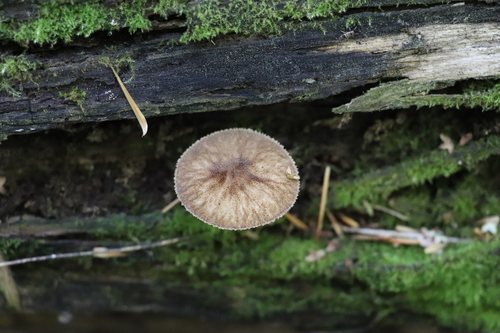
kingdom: Fungi
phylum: Basidiomycota
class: Agaricomycetes
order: Agaricales
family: Pluteaceae
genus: Pluteus
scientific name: Pluteus umbrosus
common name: Velvet shield
